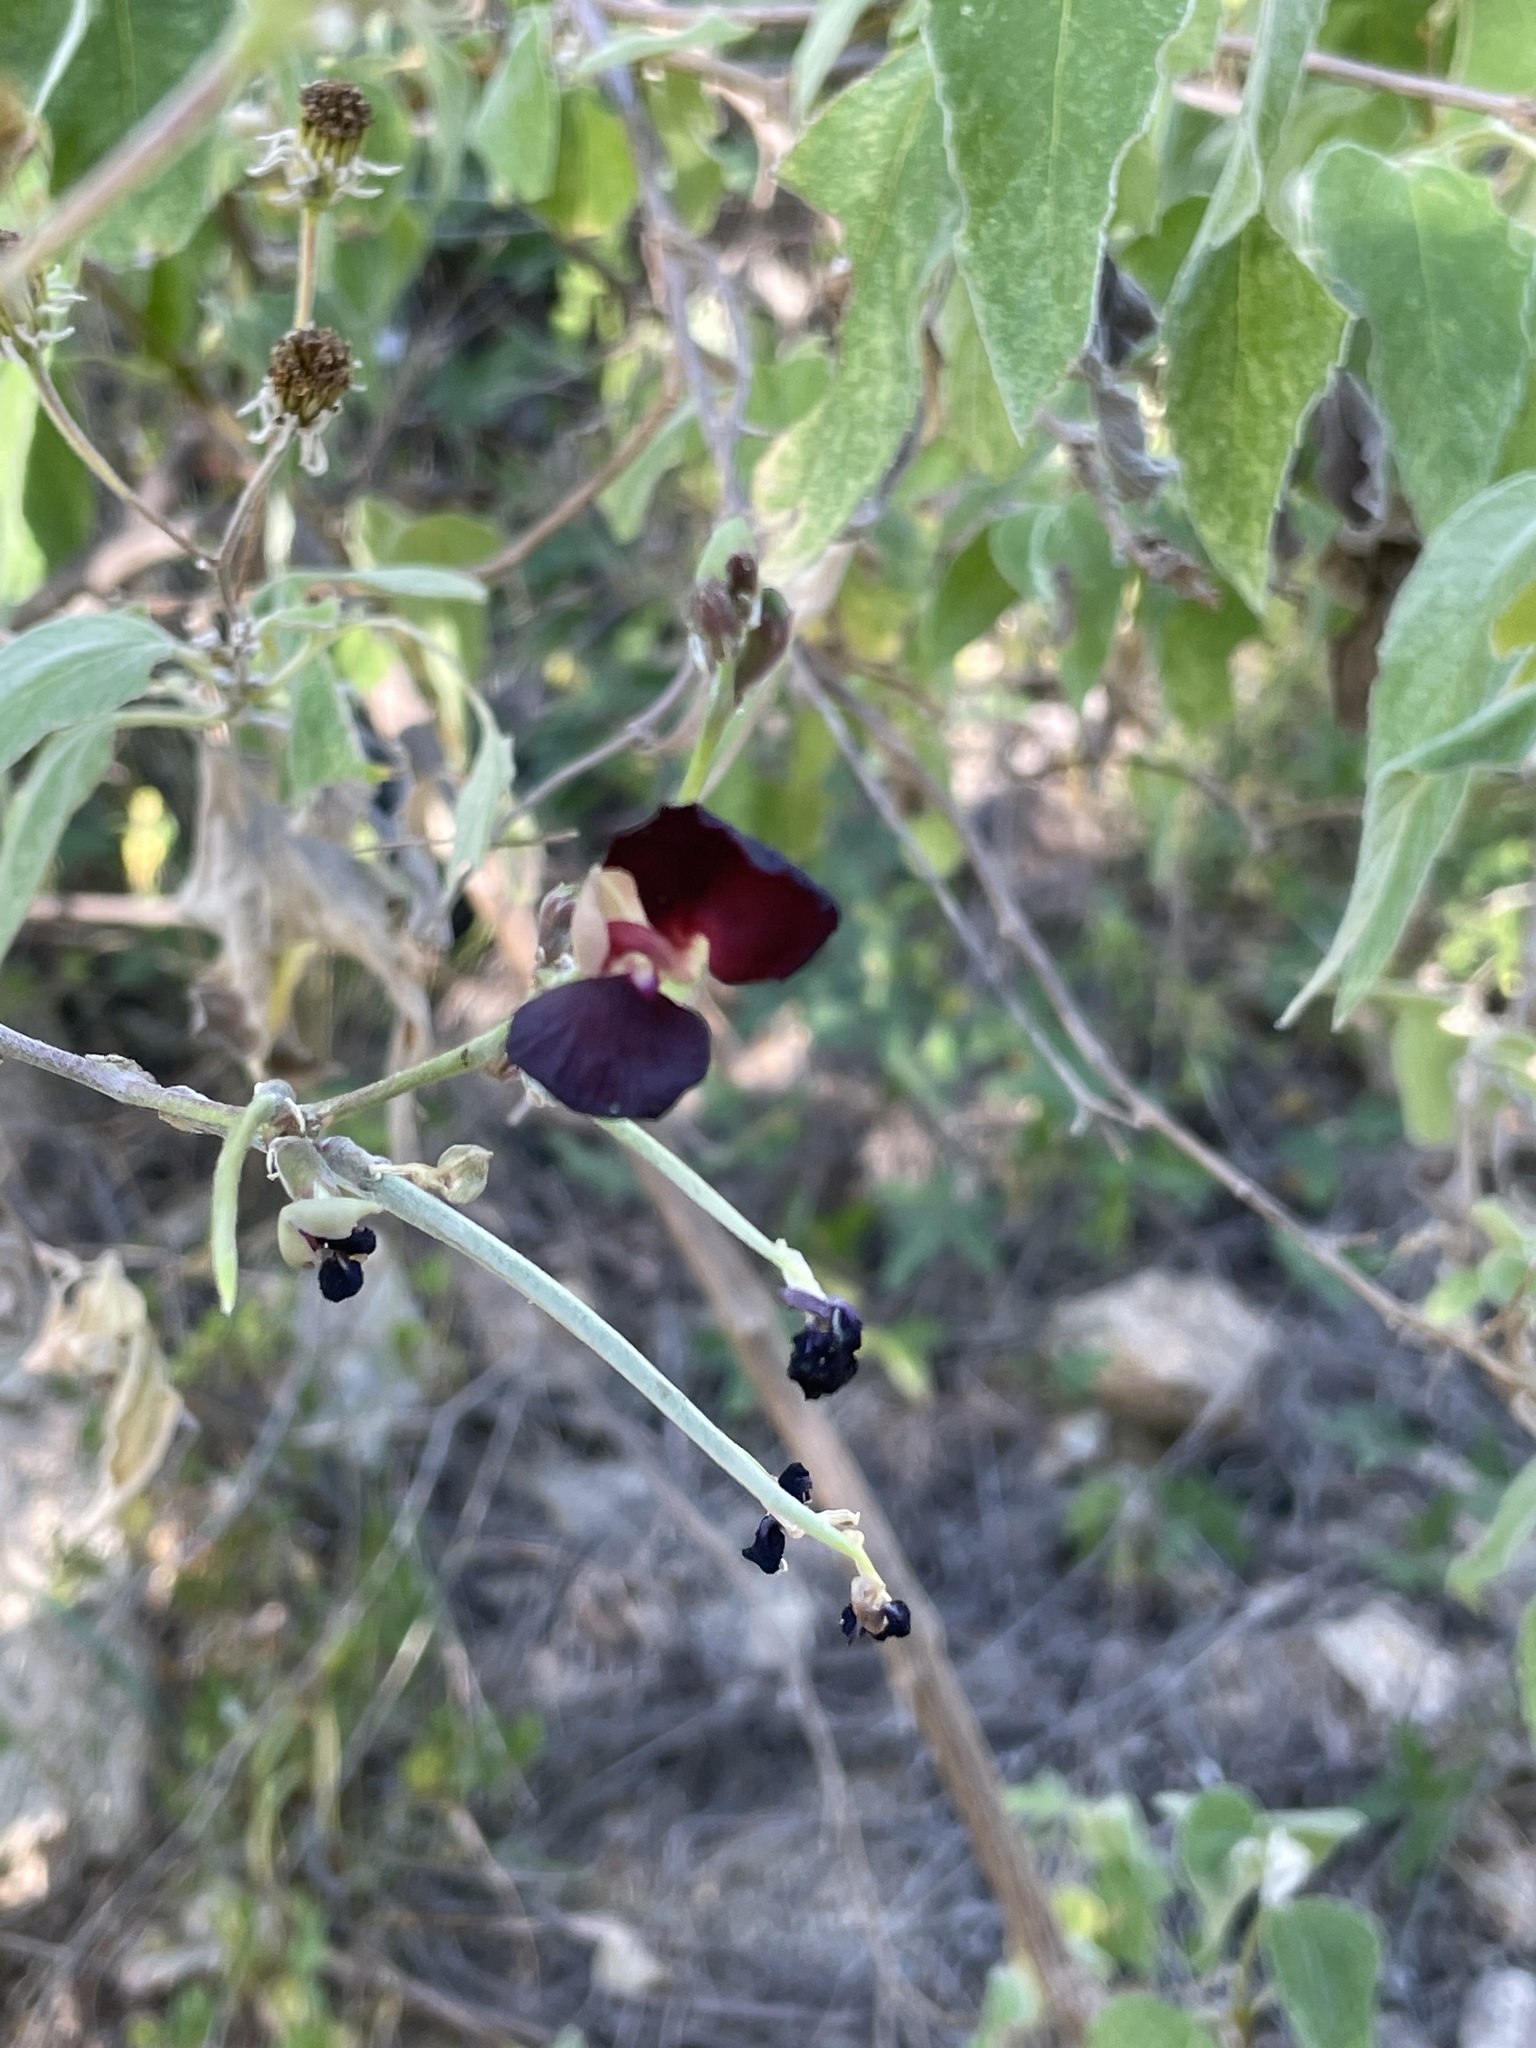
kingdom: Plantae
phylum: Tracheophyta
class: Magnoliopsida
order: Fabales
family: Fabaceae
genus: Macroptilium
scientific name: Macroptilium atropurpureum
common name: Purple bushbean
